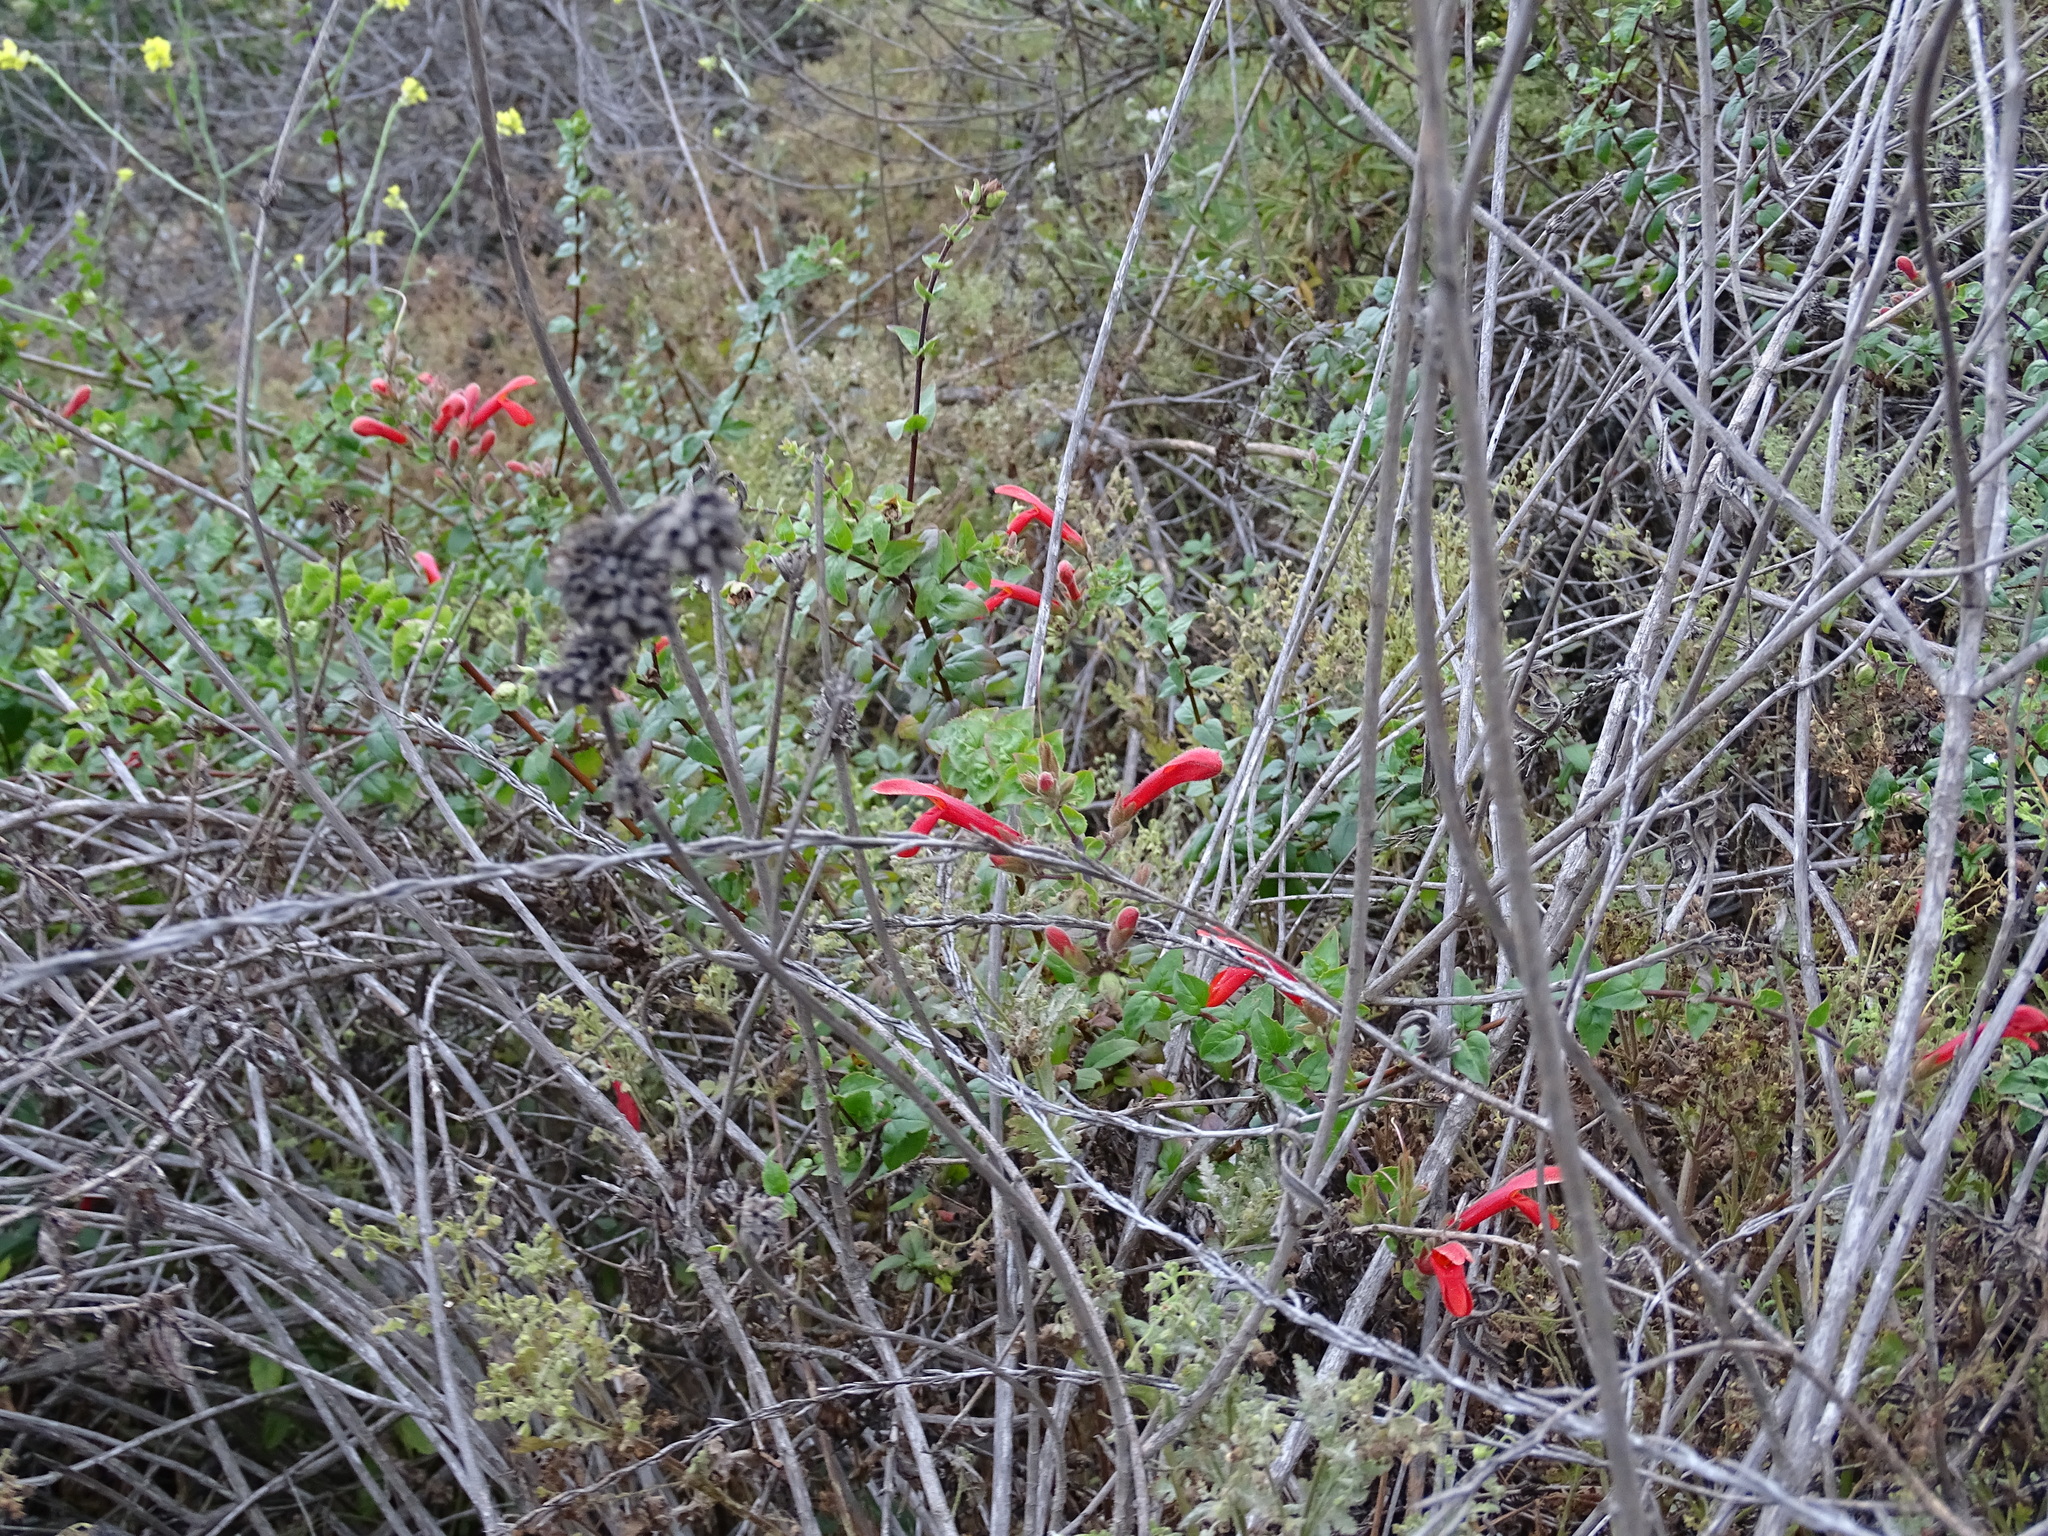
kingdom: Plantae
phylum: Tracheophyta
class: Magnoliopsida
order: Lamiales
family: Plantaginaceae
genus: Keckiella
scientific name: Keckiella cordifolia
